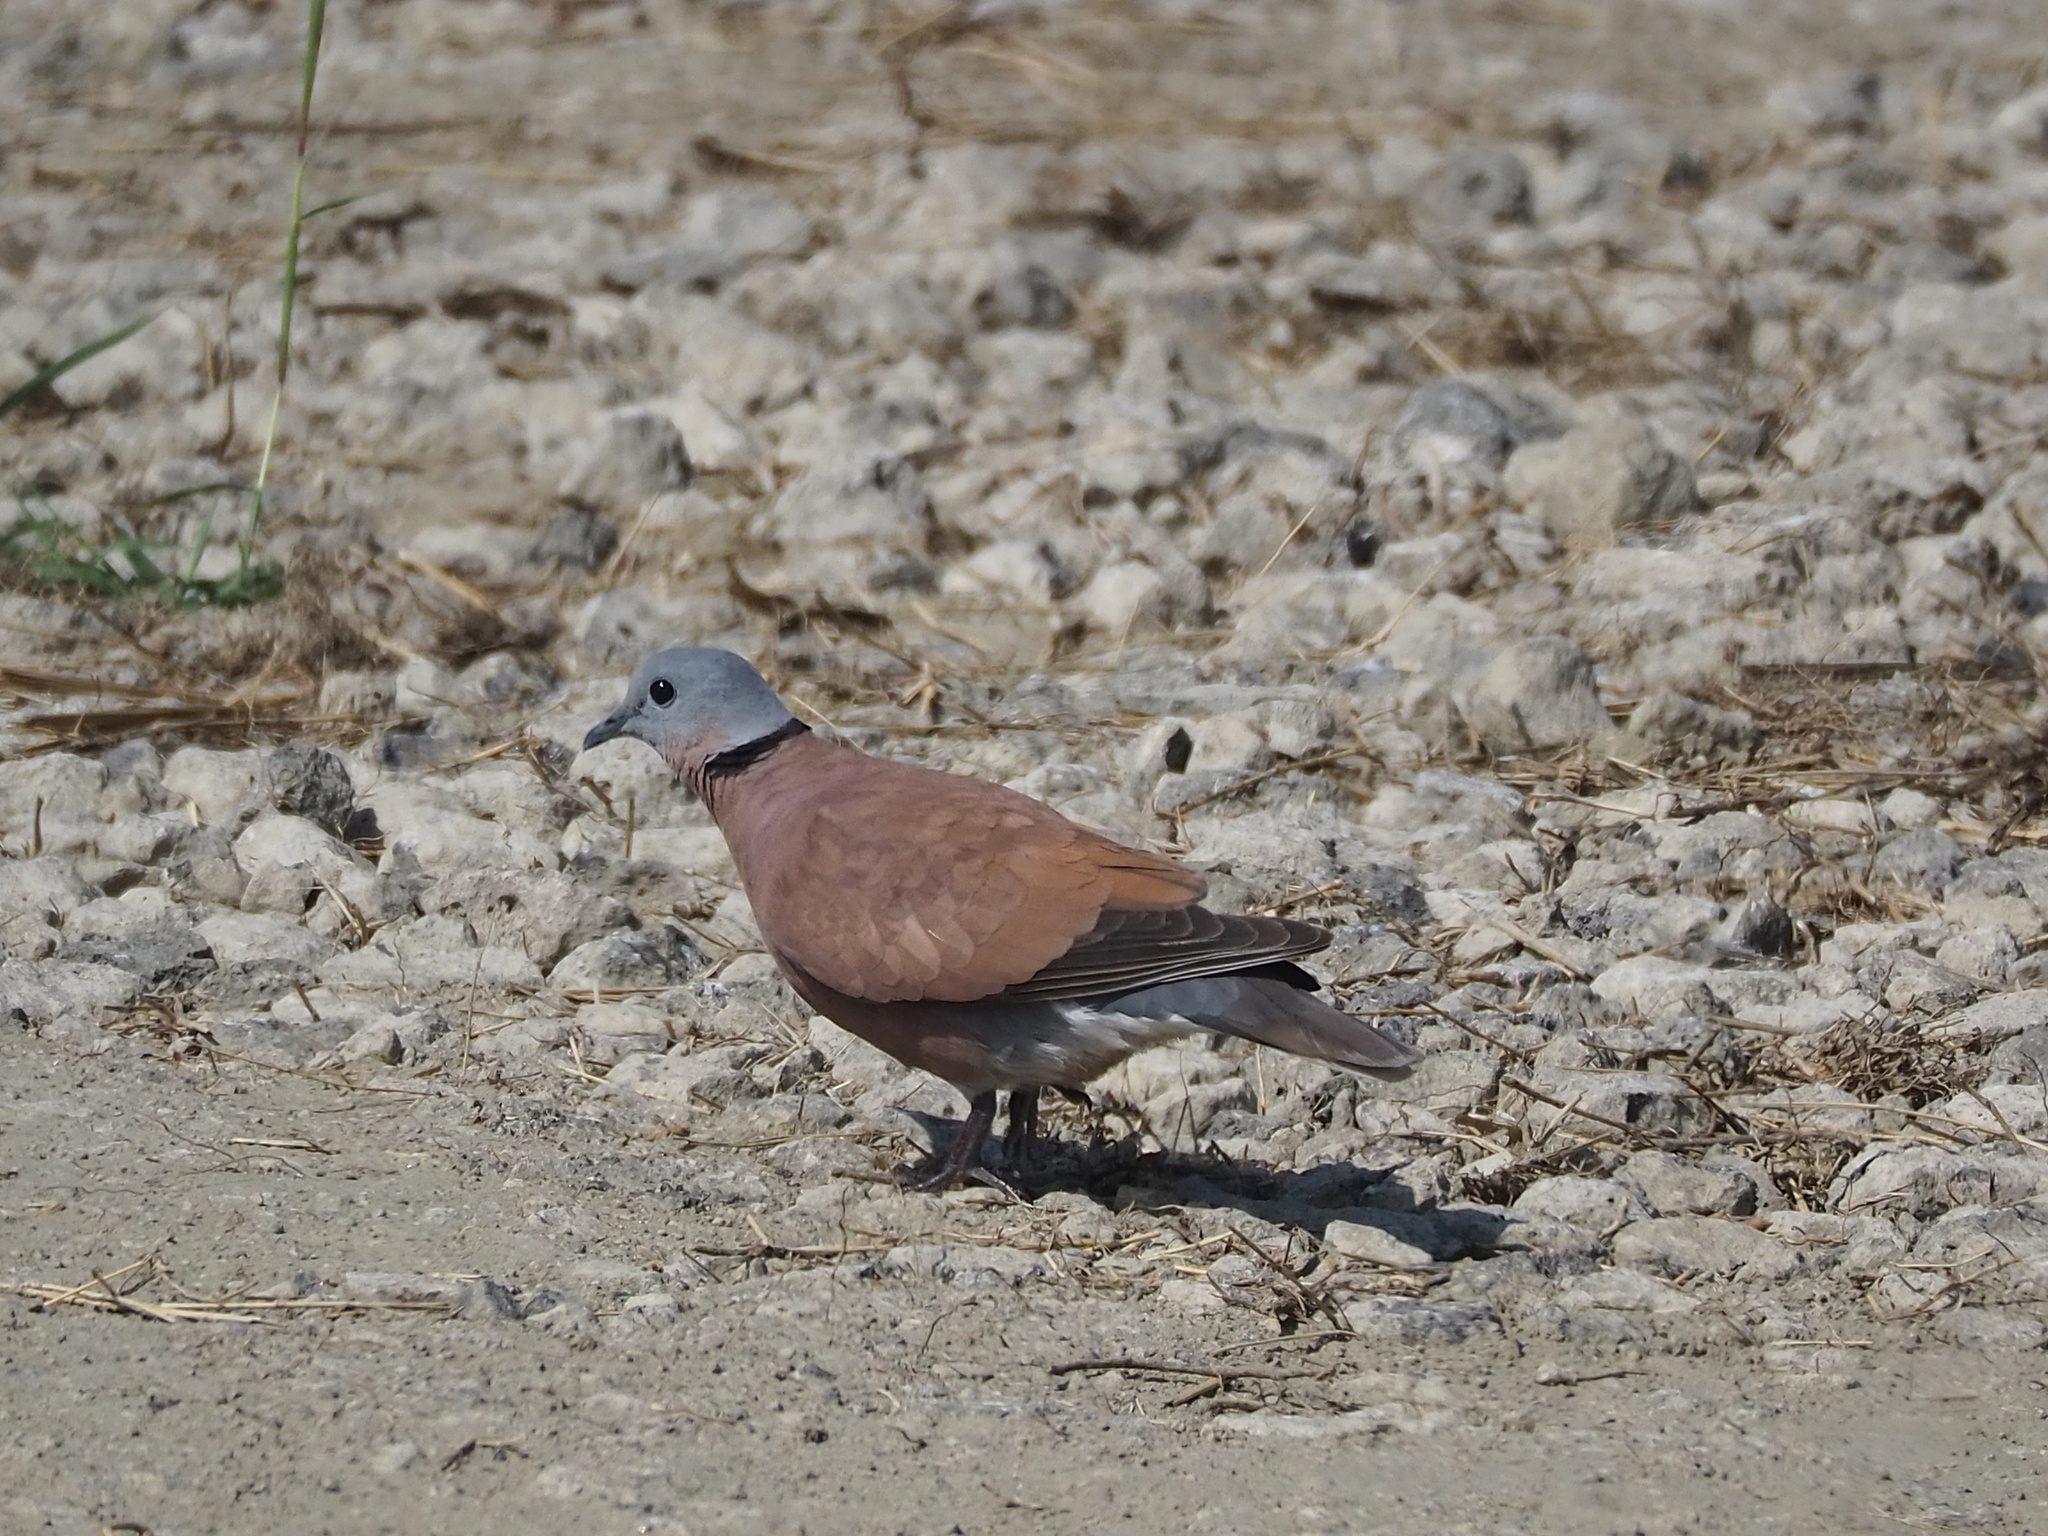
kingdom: Animalia
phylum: Chordata
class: Aves
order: Columbiformes
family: Columbidae
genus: Streptopelia
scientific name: Streptopelia tranquebarica
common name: Red turtle dove
